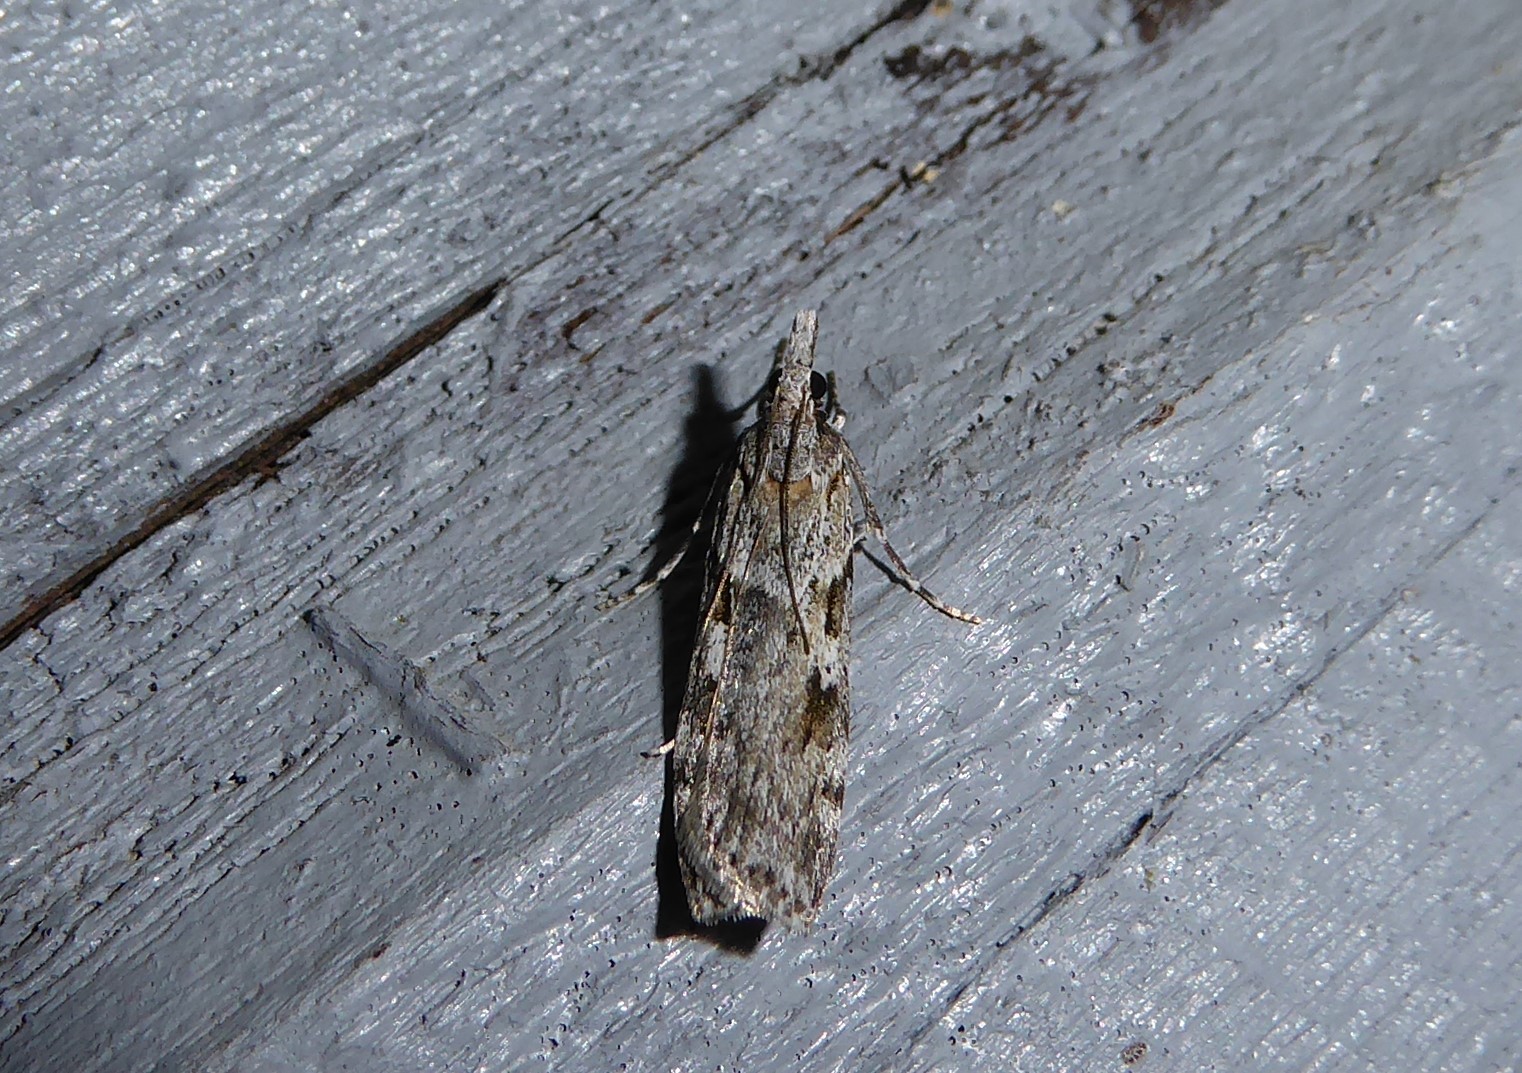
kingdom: Animalia
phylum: Arthropoda
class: Insecta
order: Lepidoptera
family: Crambidae
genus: Scoparia
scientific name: Scoparia halopis
